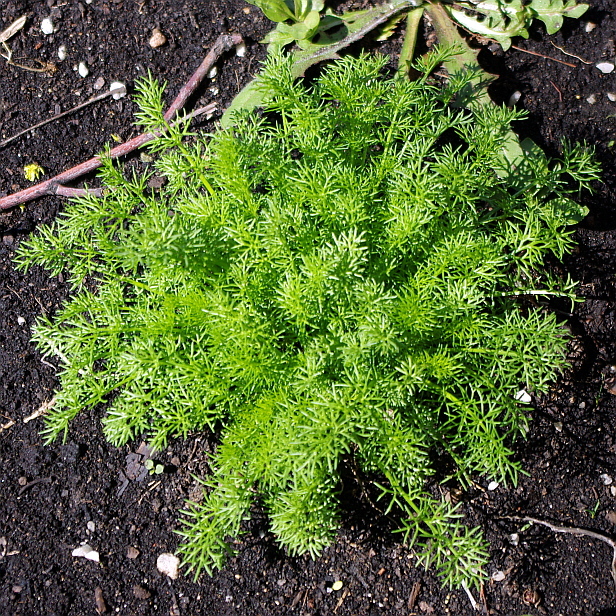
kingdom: Plantae
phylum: Tracheophyta
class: Magnoliopsida
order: Asterales
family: Asteraceae
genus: Tripleurospermum
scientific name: Tripleurospermum inodorum
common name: Scentless mayweed
